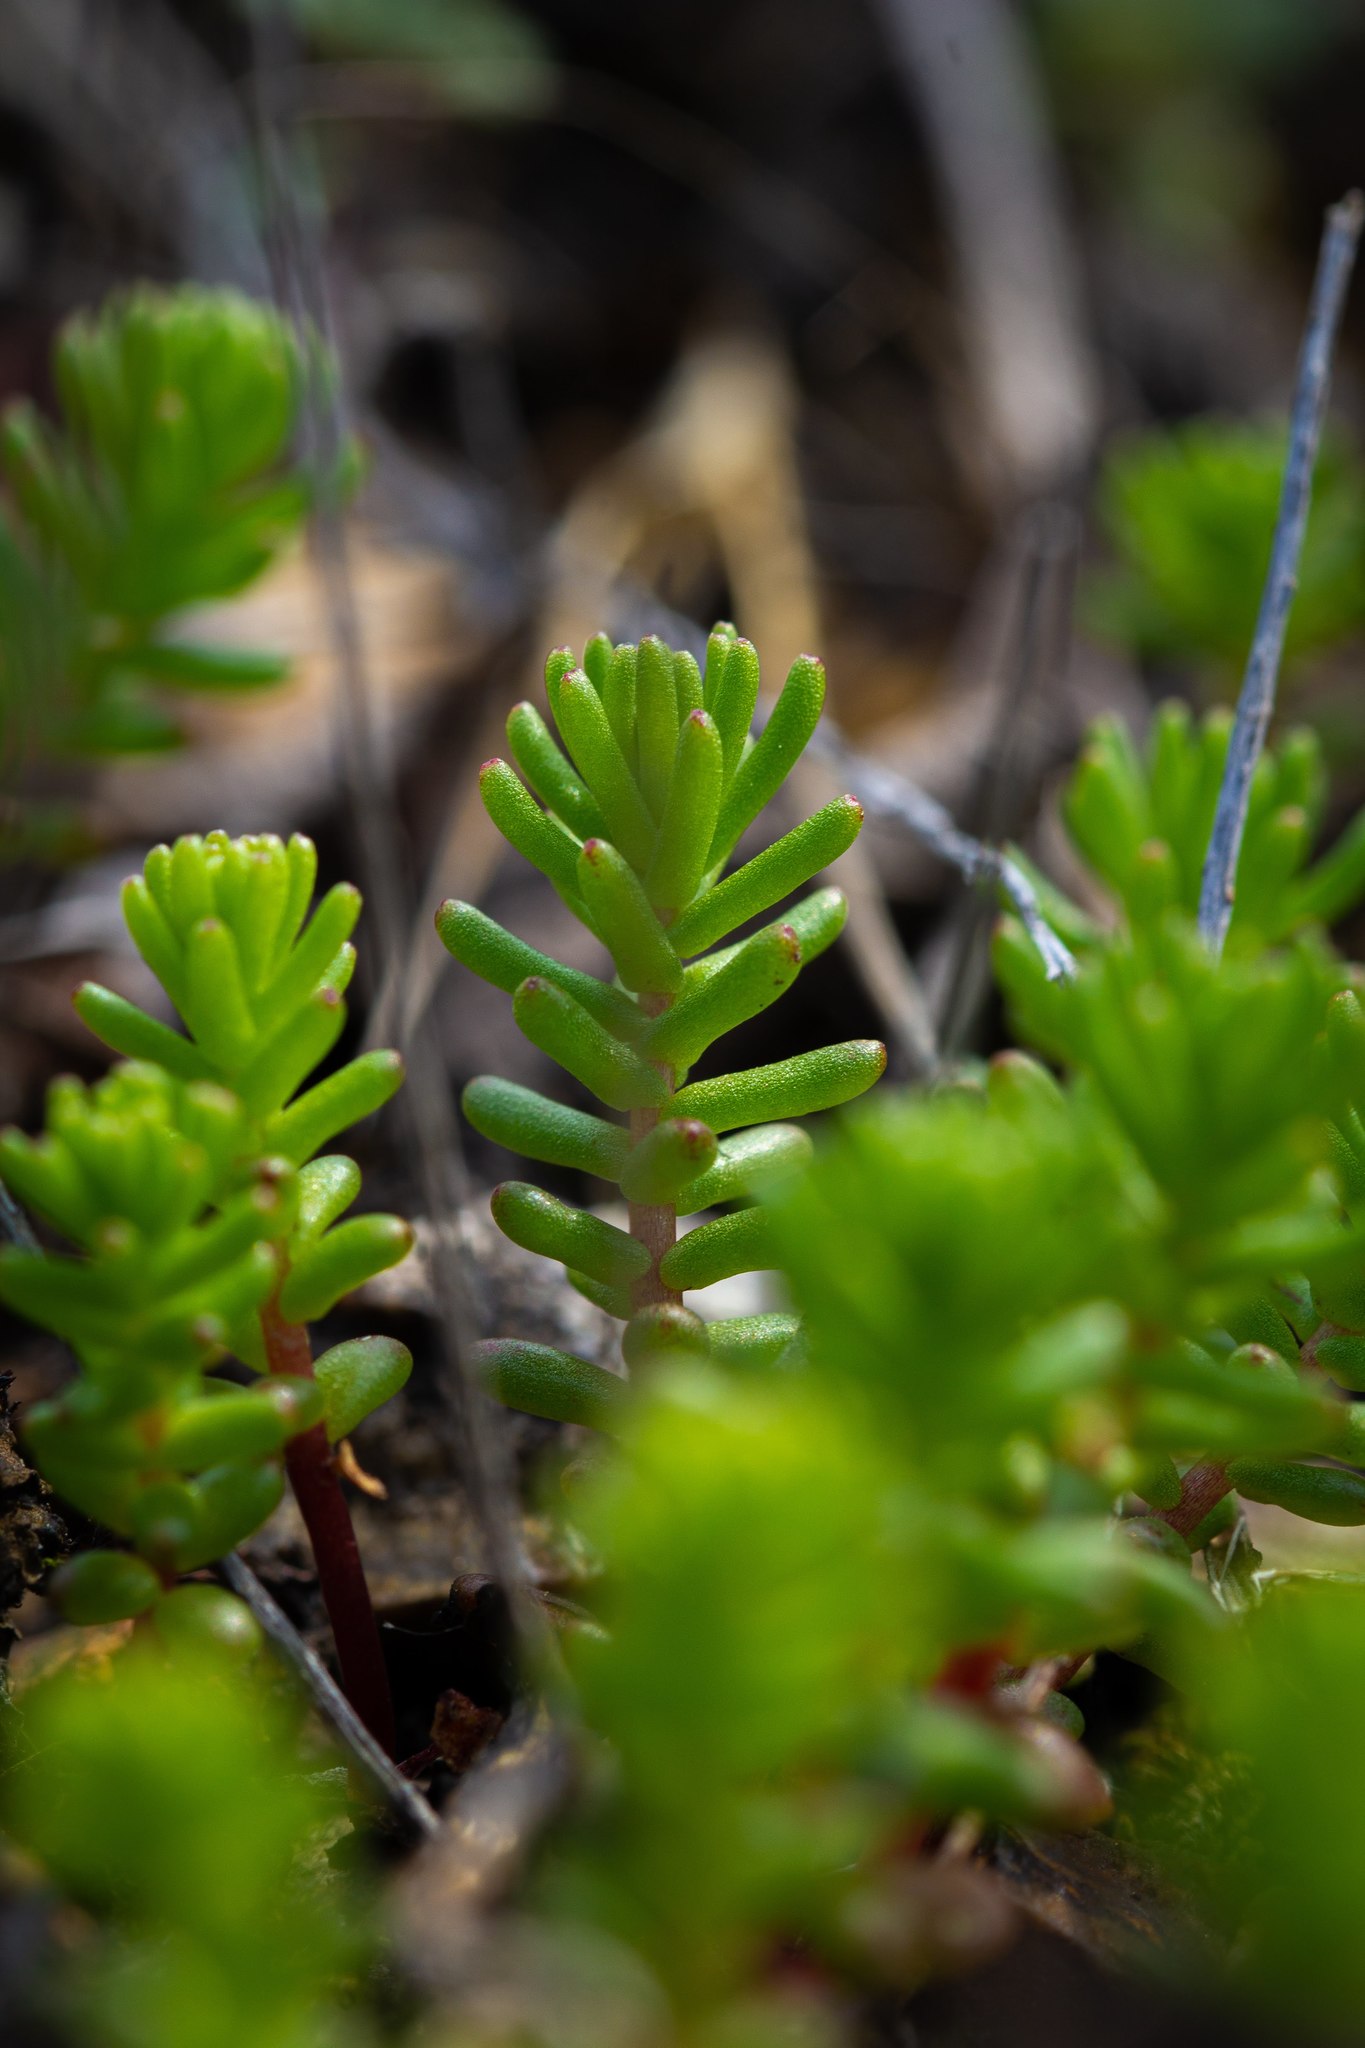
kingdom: Plantae
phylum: Tracheophyta
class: Magnoliopsida
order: Saxifragales
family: Crassulaceae
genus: Sedum
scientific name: Sedum pulchellum
